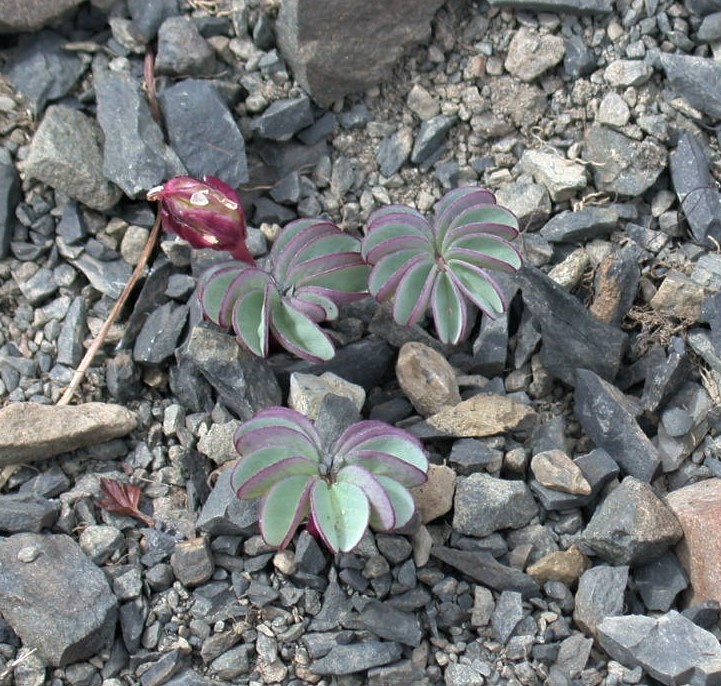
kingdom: Plantae
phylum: Tracheophyta
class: Magnoliopsida
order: Oxalidales
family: Oxalidaceae
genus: Oxalis
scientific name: Oxalis loricata
